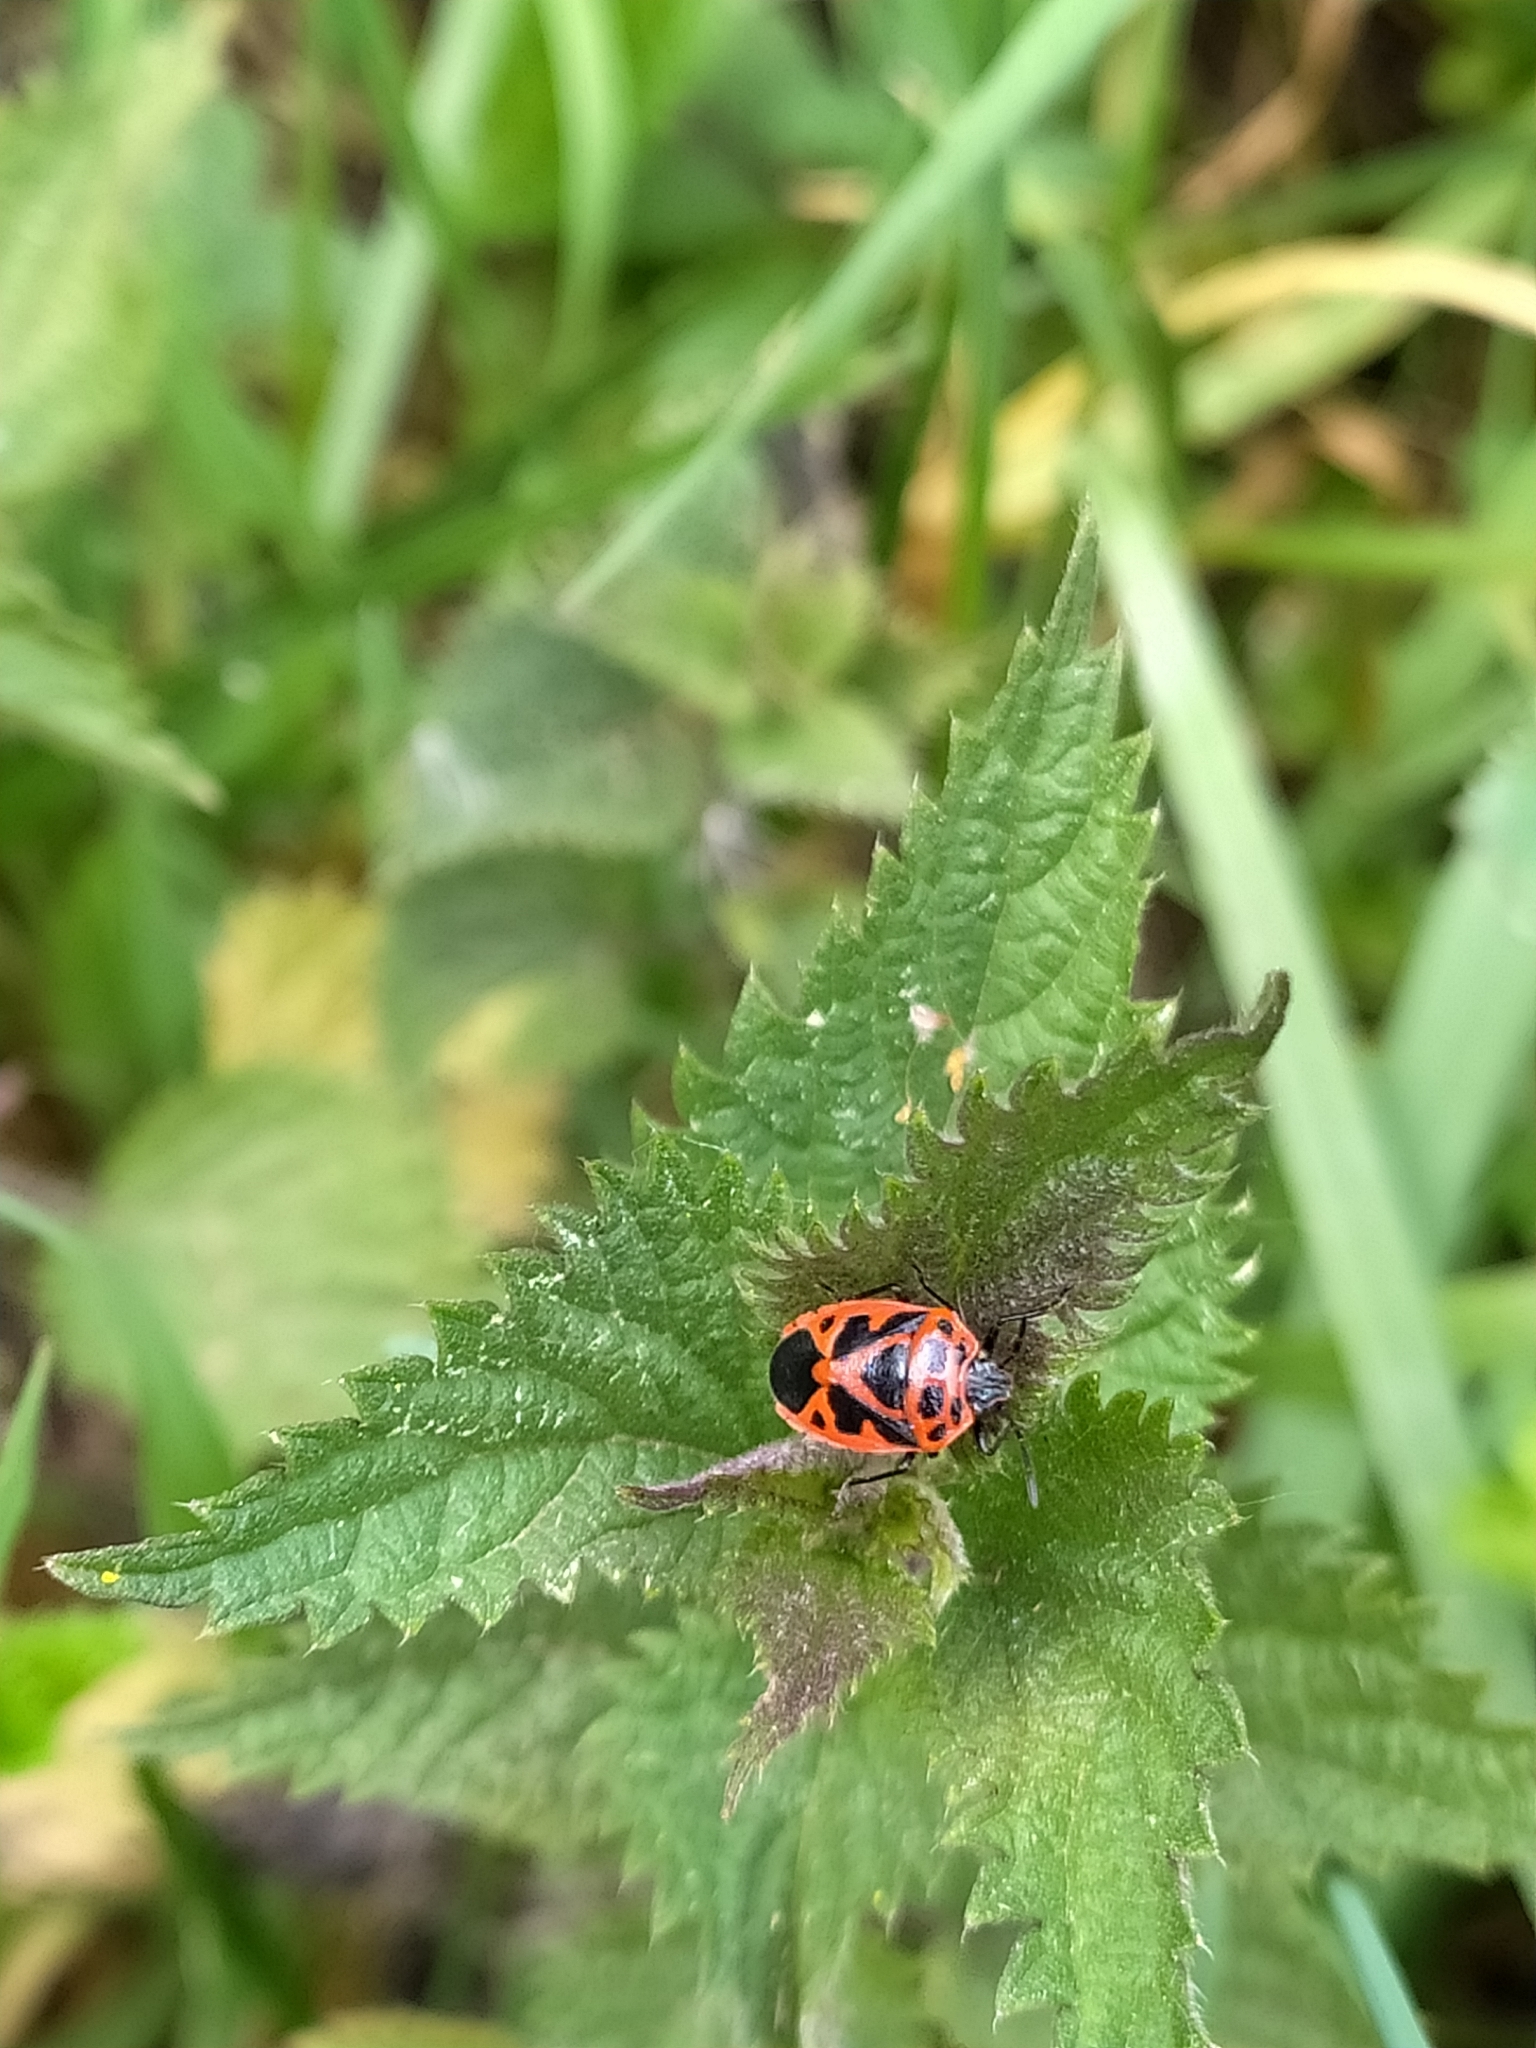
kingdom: Animalia
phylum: Arthropoda
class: Insecta
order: Hemiptera
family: Pentatomidae
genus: Eurydema
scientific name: Eurydema dominulus
